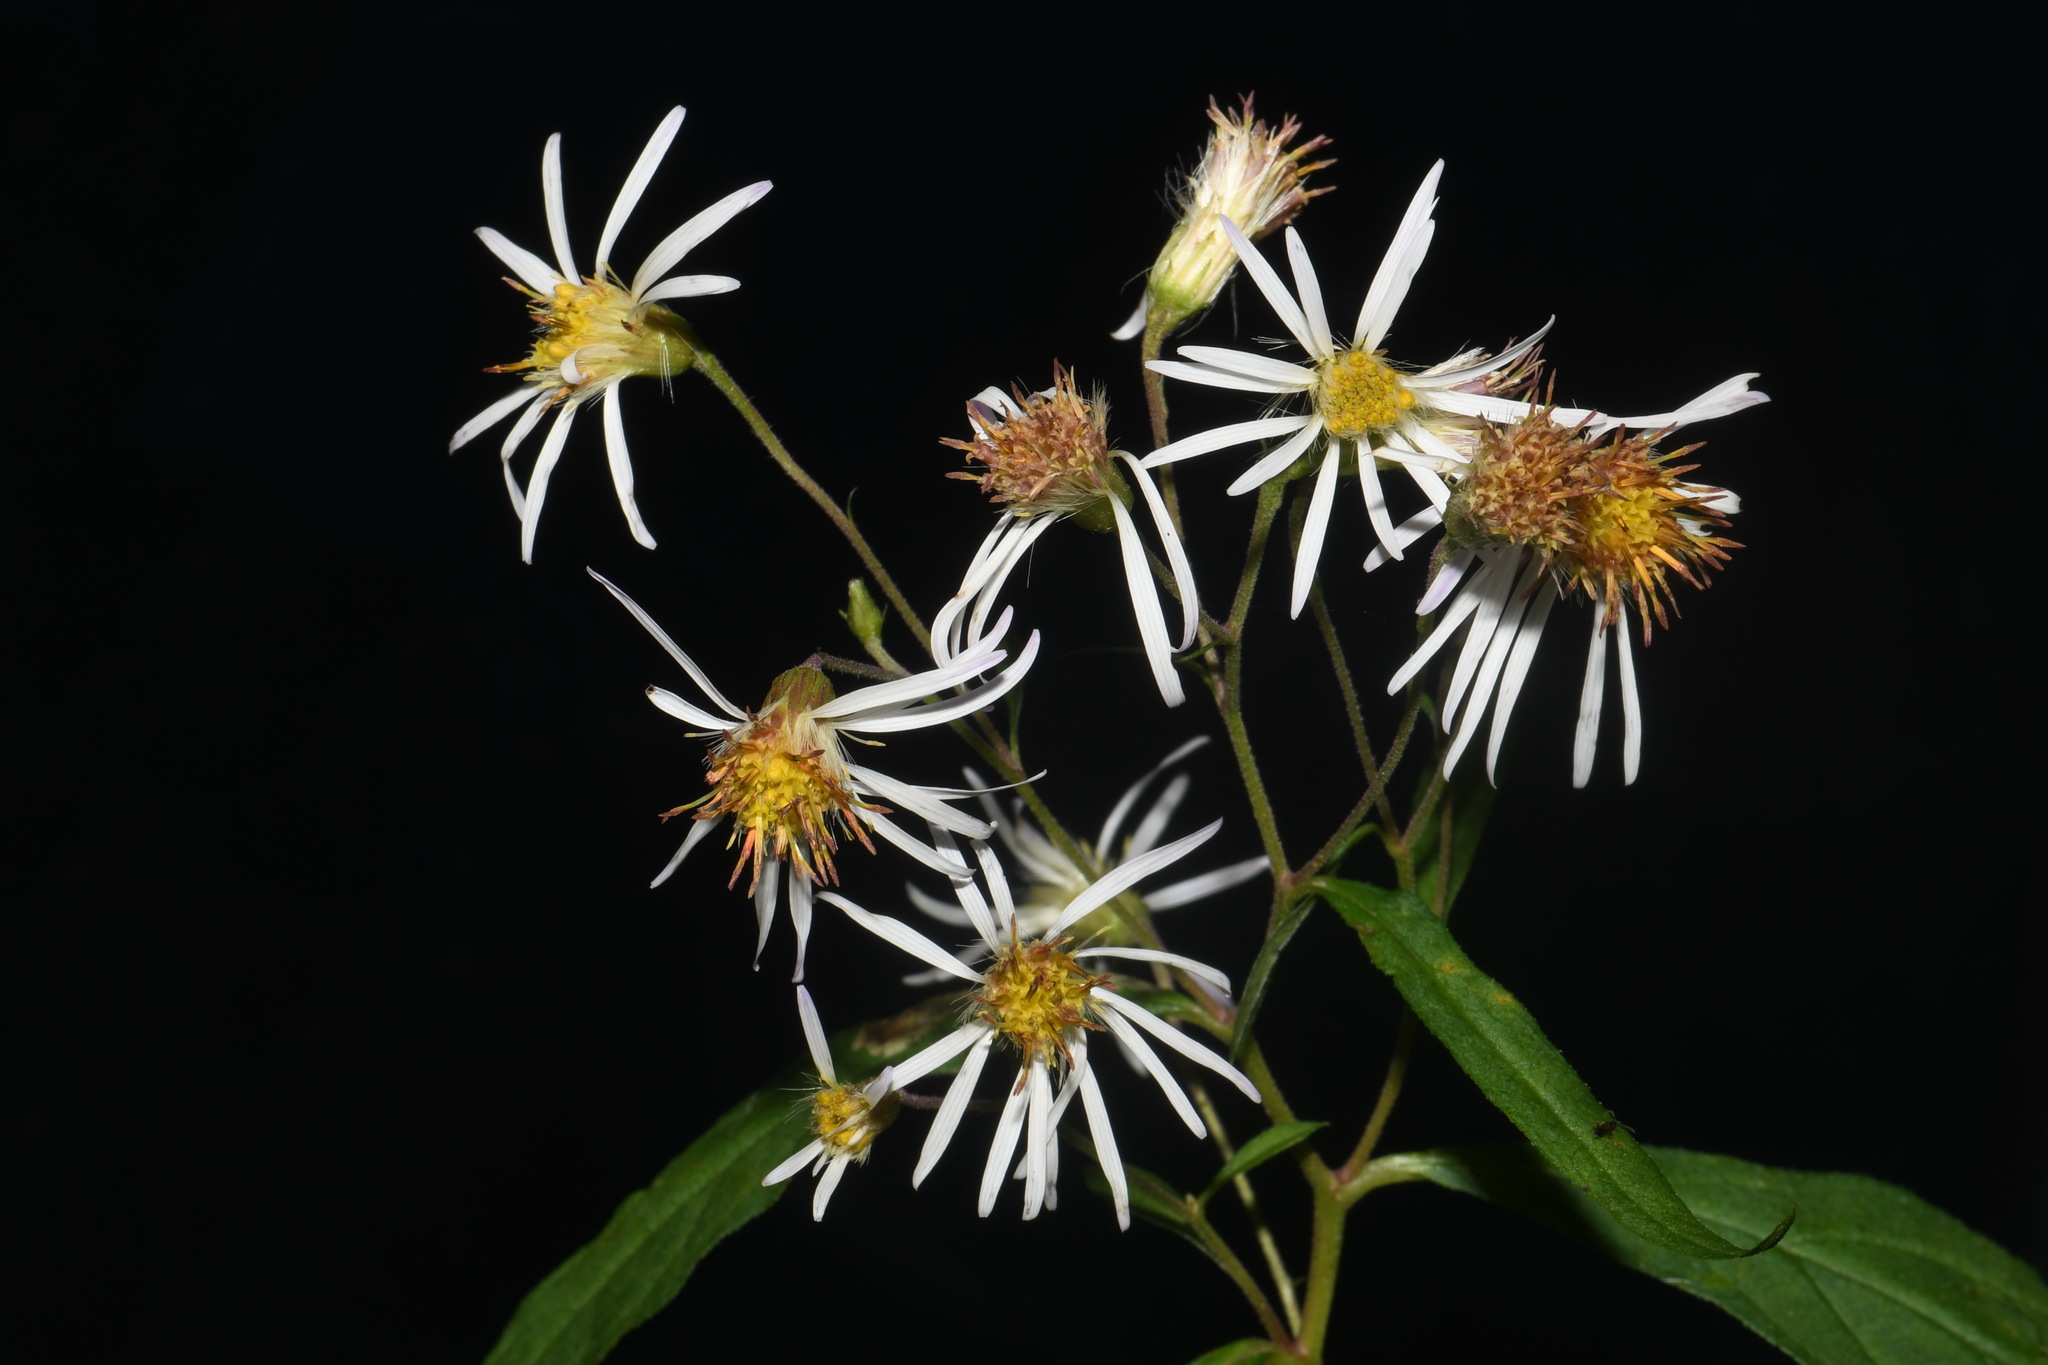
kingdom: Plantae
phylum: Tracheophyta
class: Magnoliopsida
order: Asterales
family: Asteraceae
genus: Oclemena
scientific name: Oclemena acuminata
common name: Mountain aster
